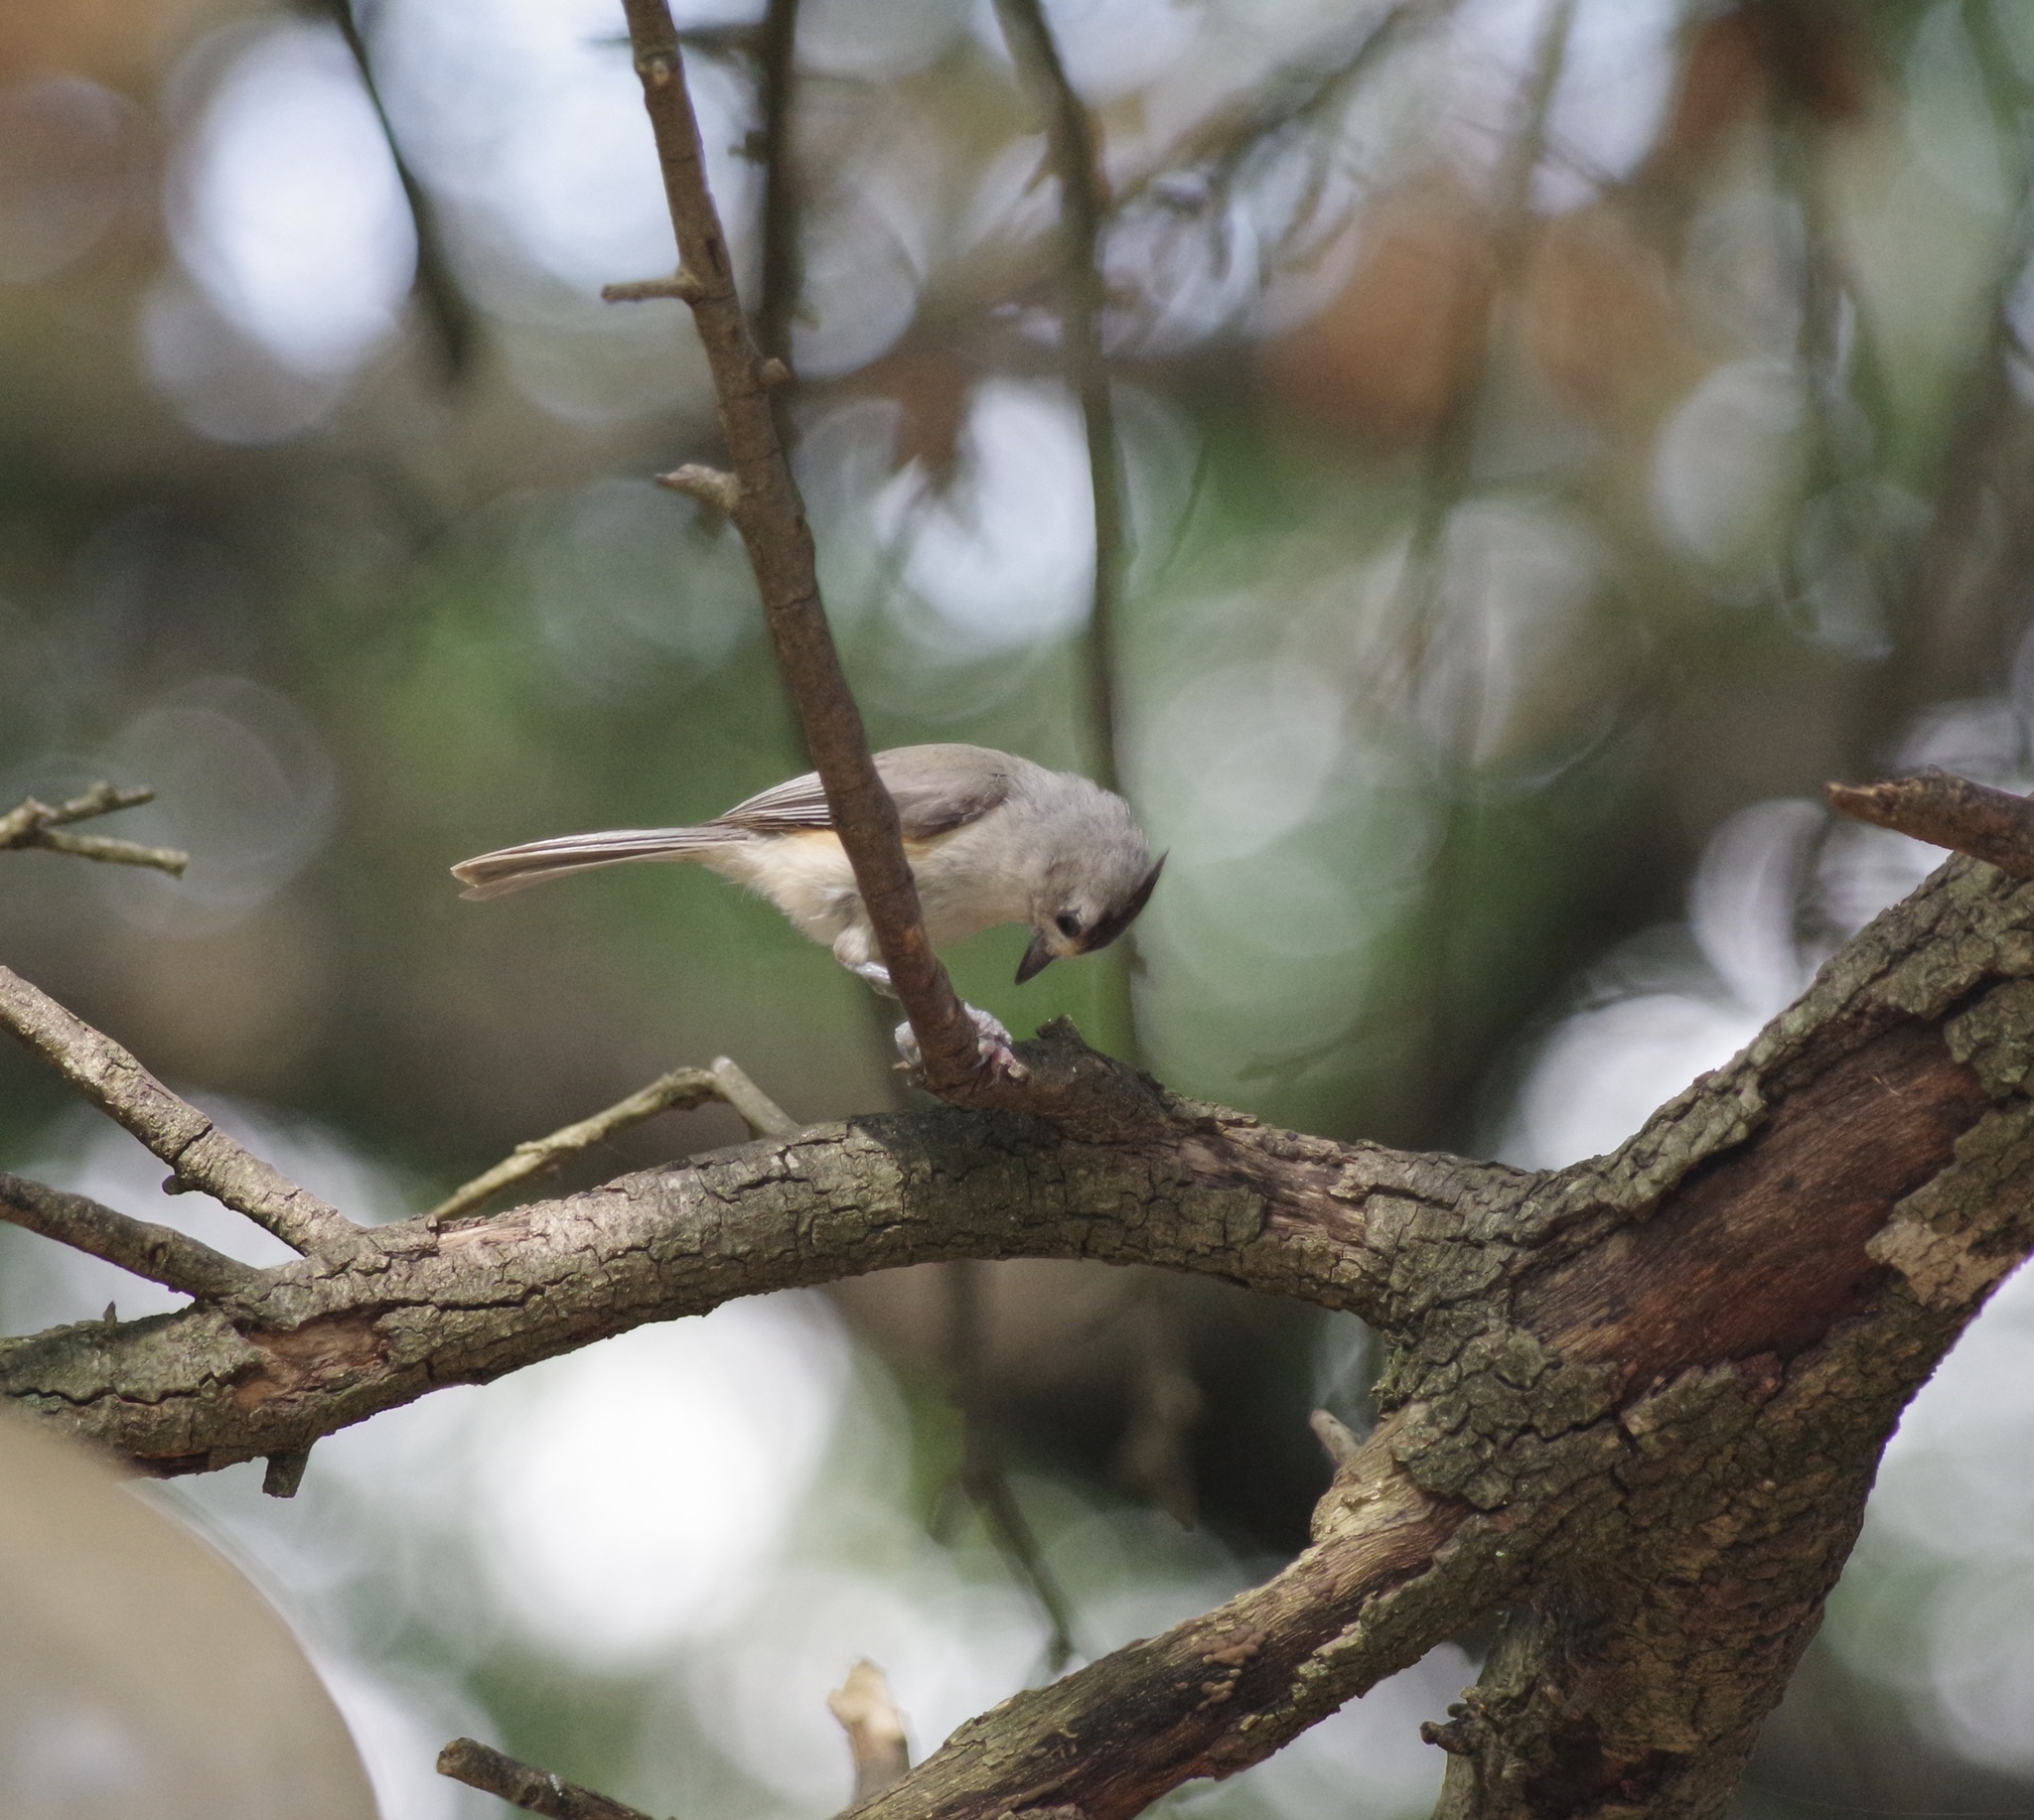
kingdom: Animalia
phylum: Chordata
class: Aves
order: Passeriformes
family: Paridae
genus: Baeolophus
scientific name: Baeolophus
